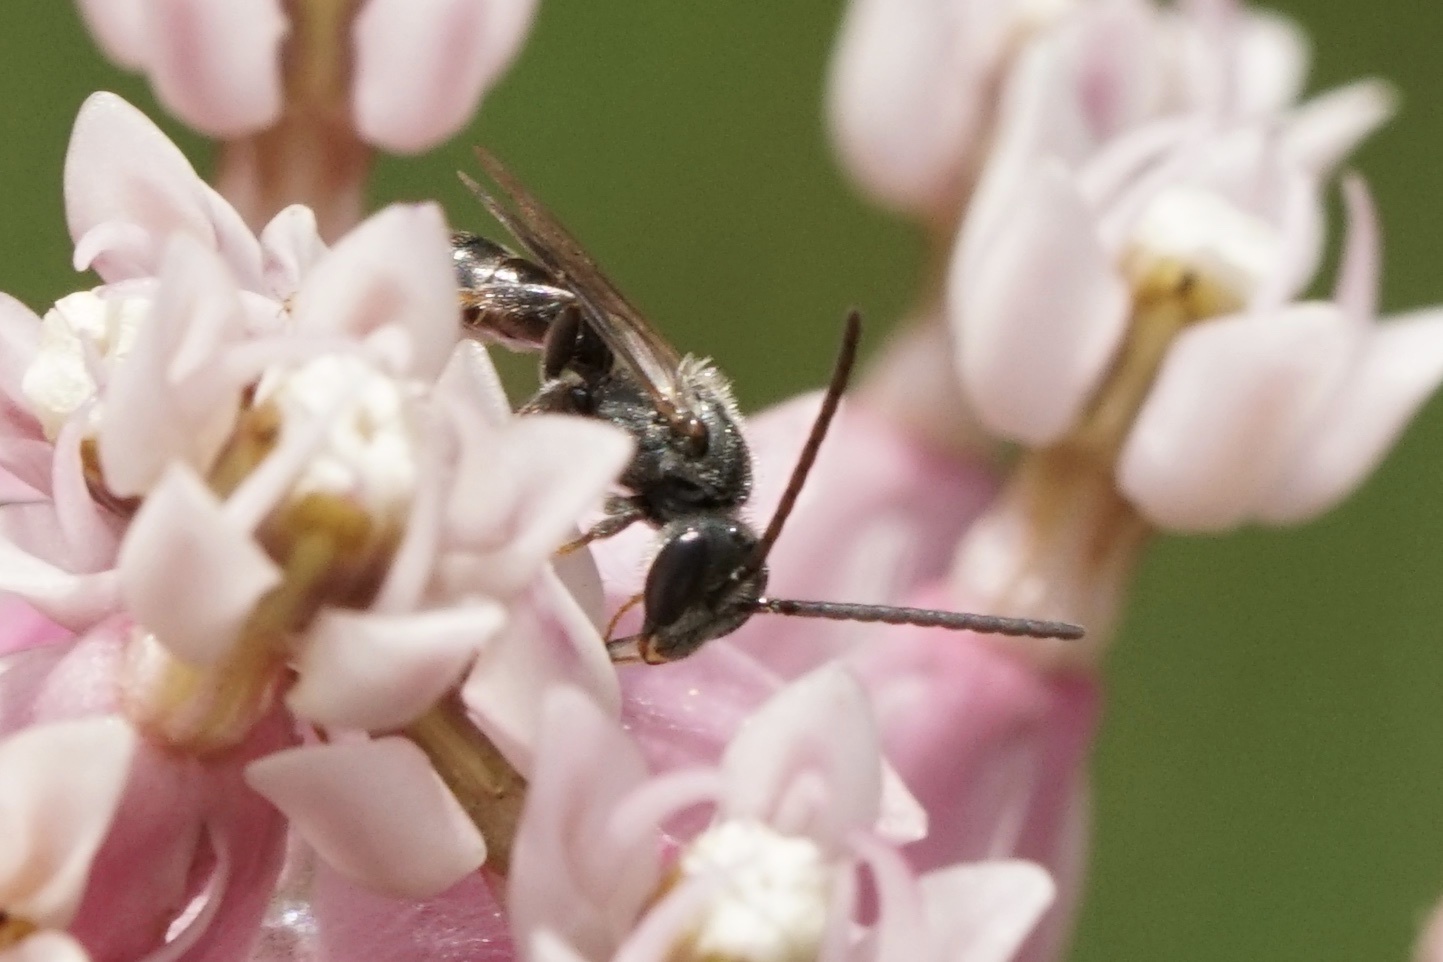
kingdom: Animalia
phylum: Arthropoda
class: Insecta
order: Hymenoptera
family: Halictidae
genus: Dialictus
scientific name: Dialictus
